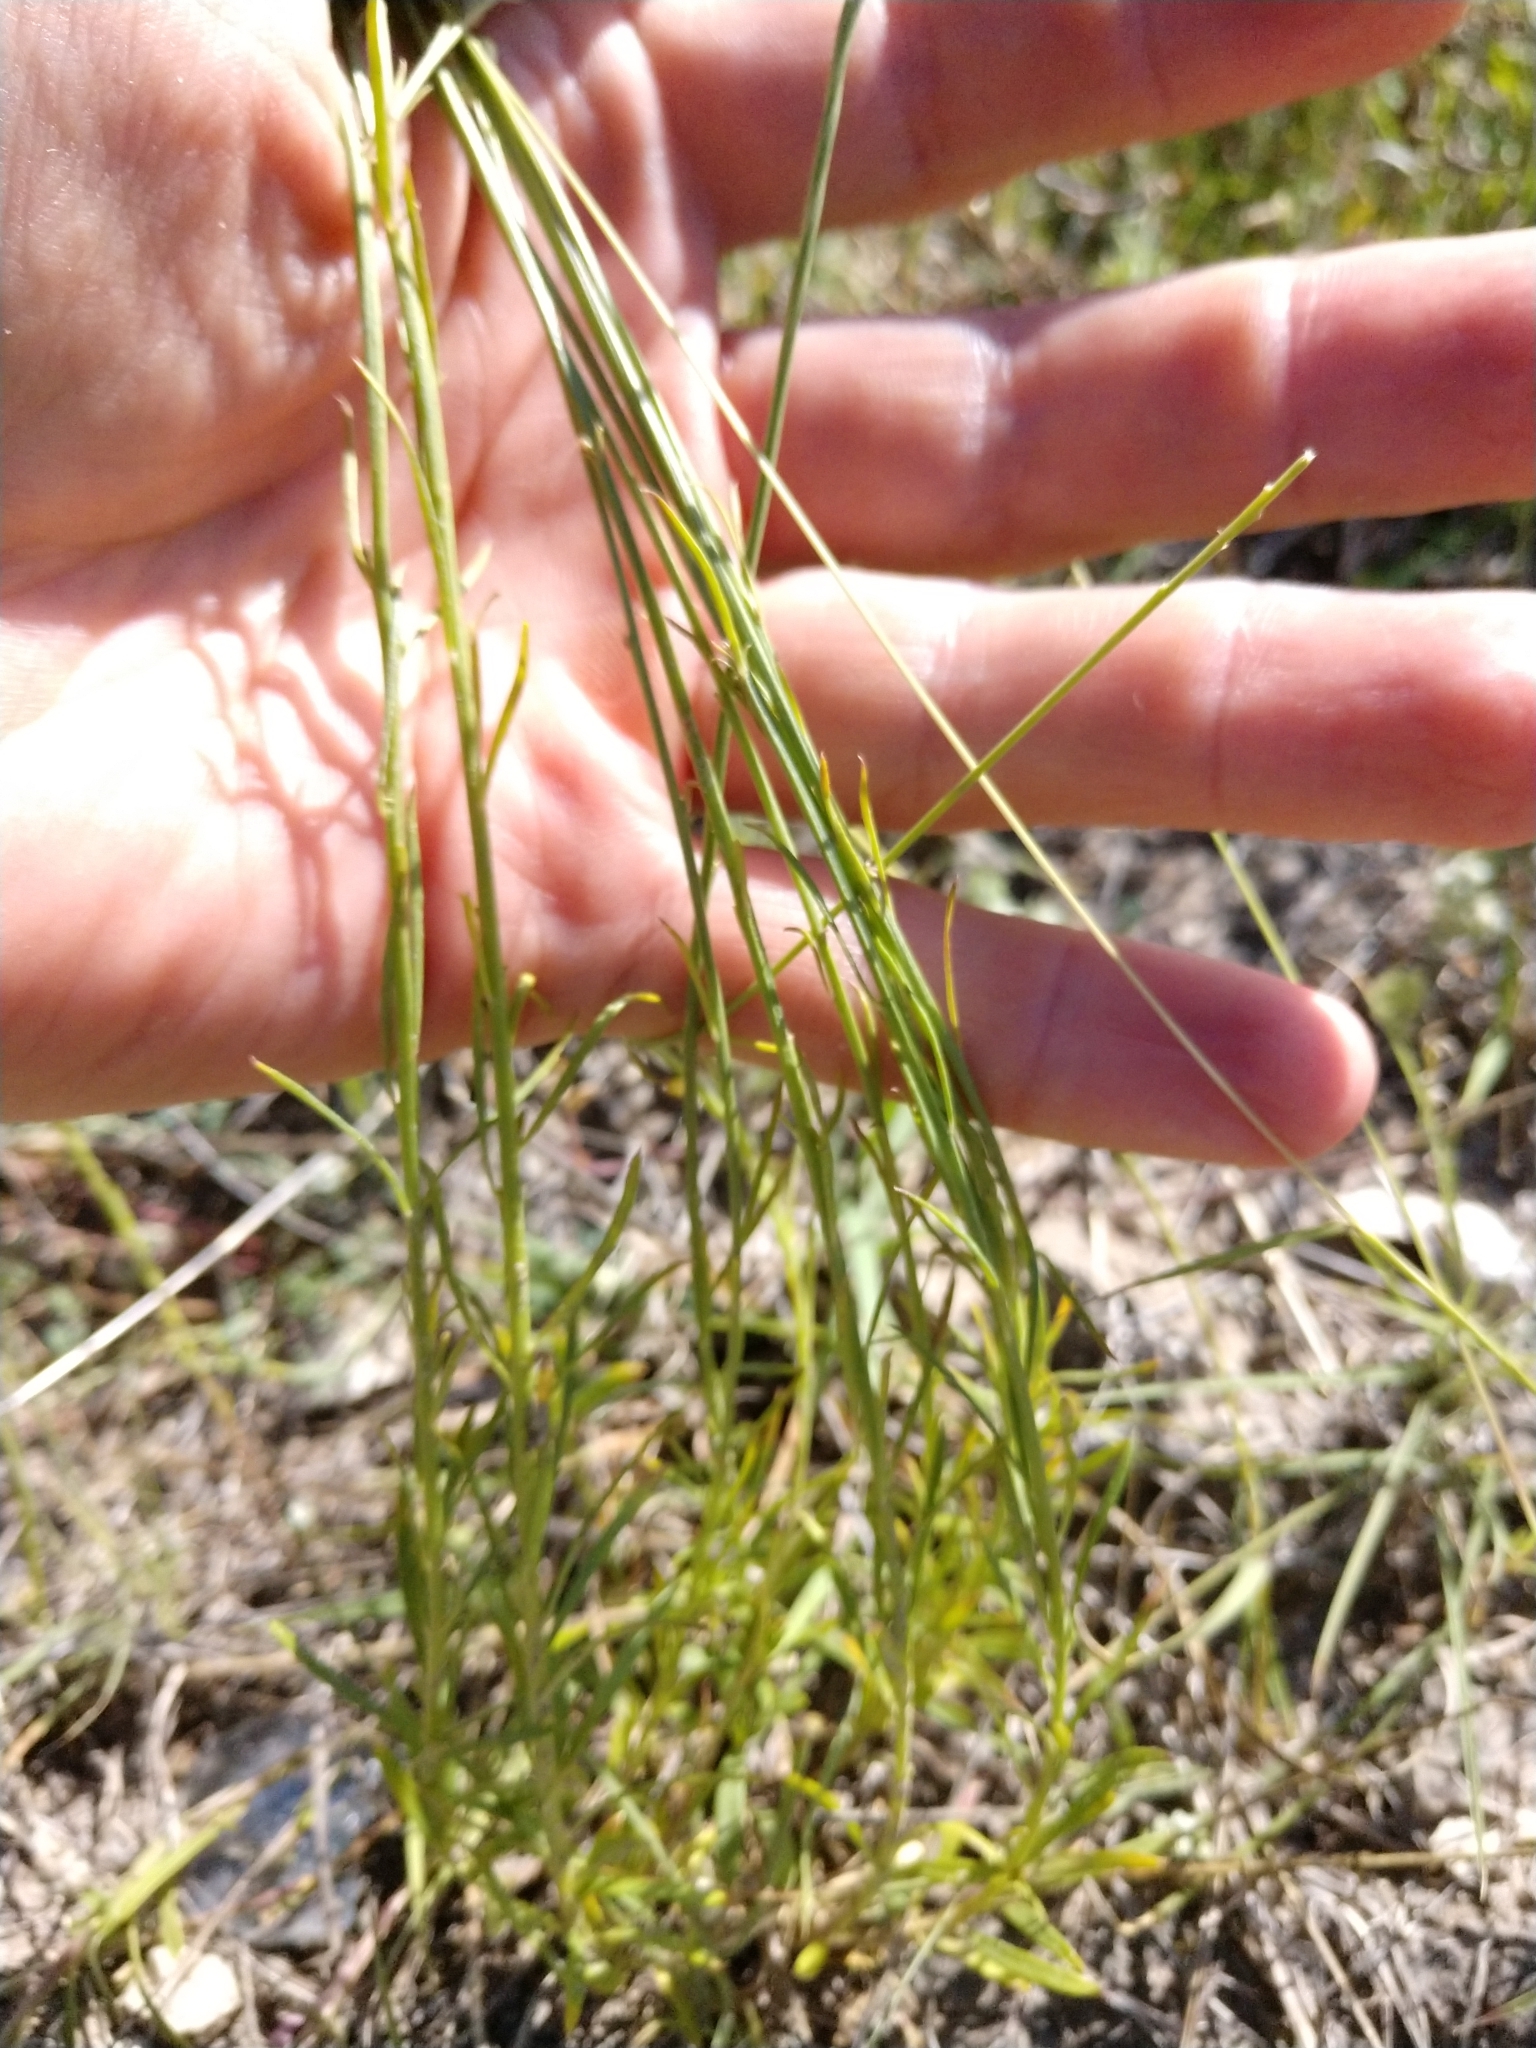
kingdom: Plantae
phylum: Tracheophyta
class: Magnoliopsida
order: Fabales
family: Polygalaceae
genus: Polygala
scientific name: Polygala alba
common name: White milkwort
